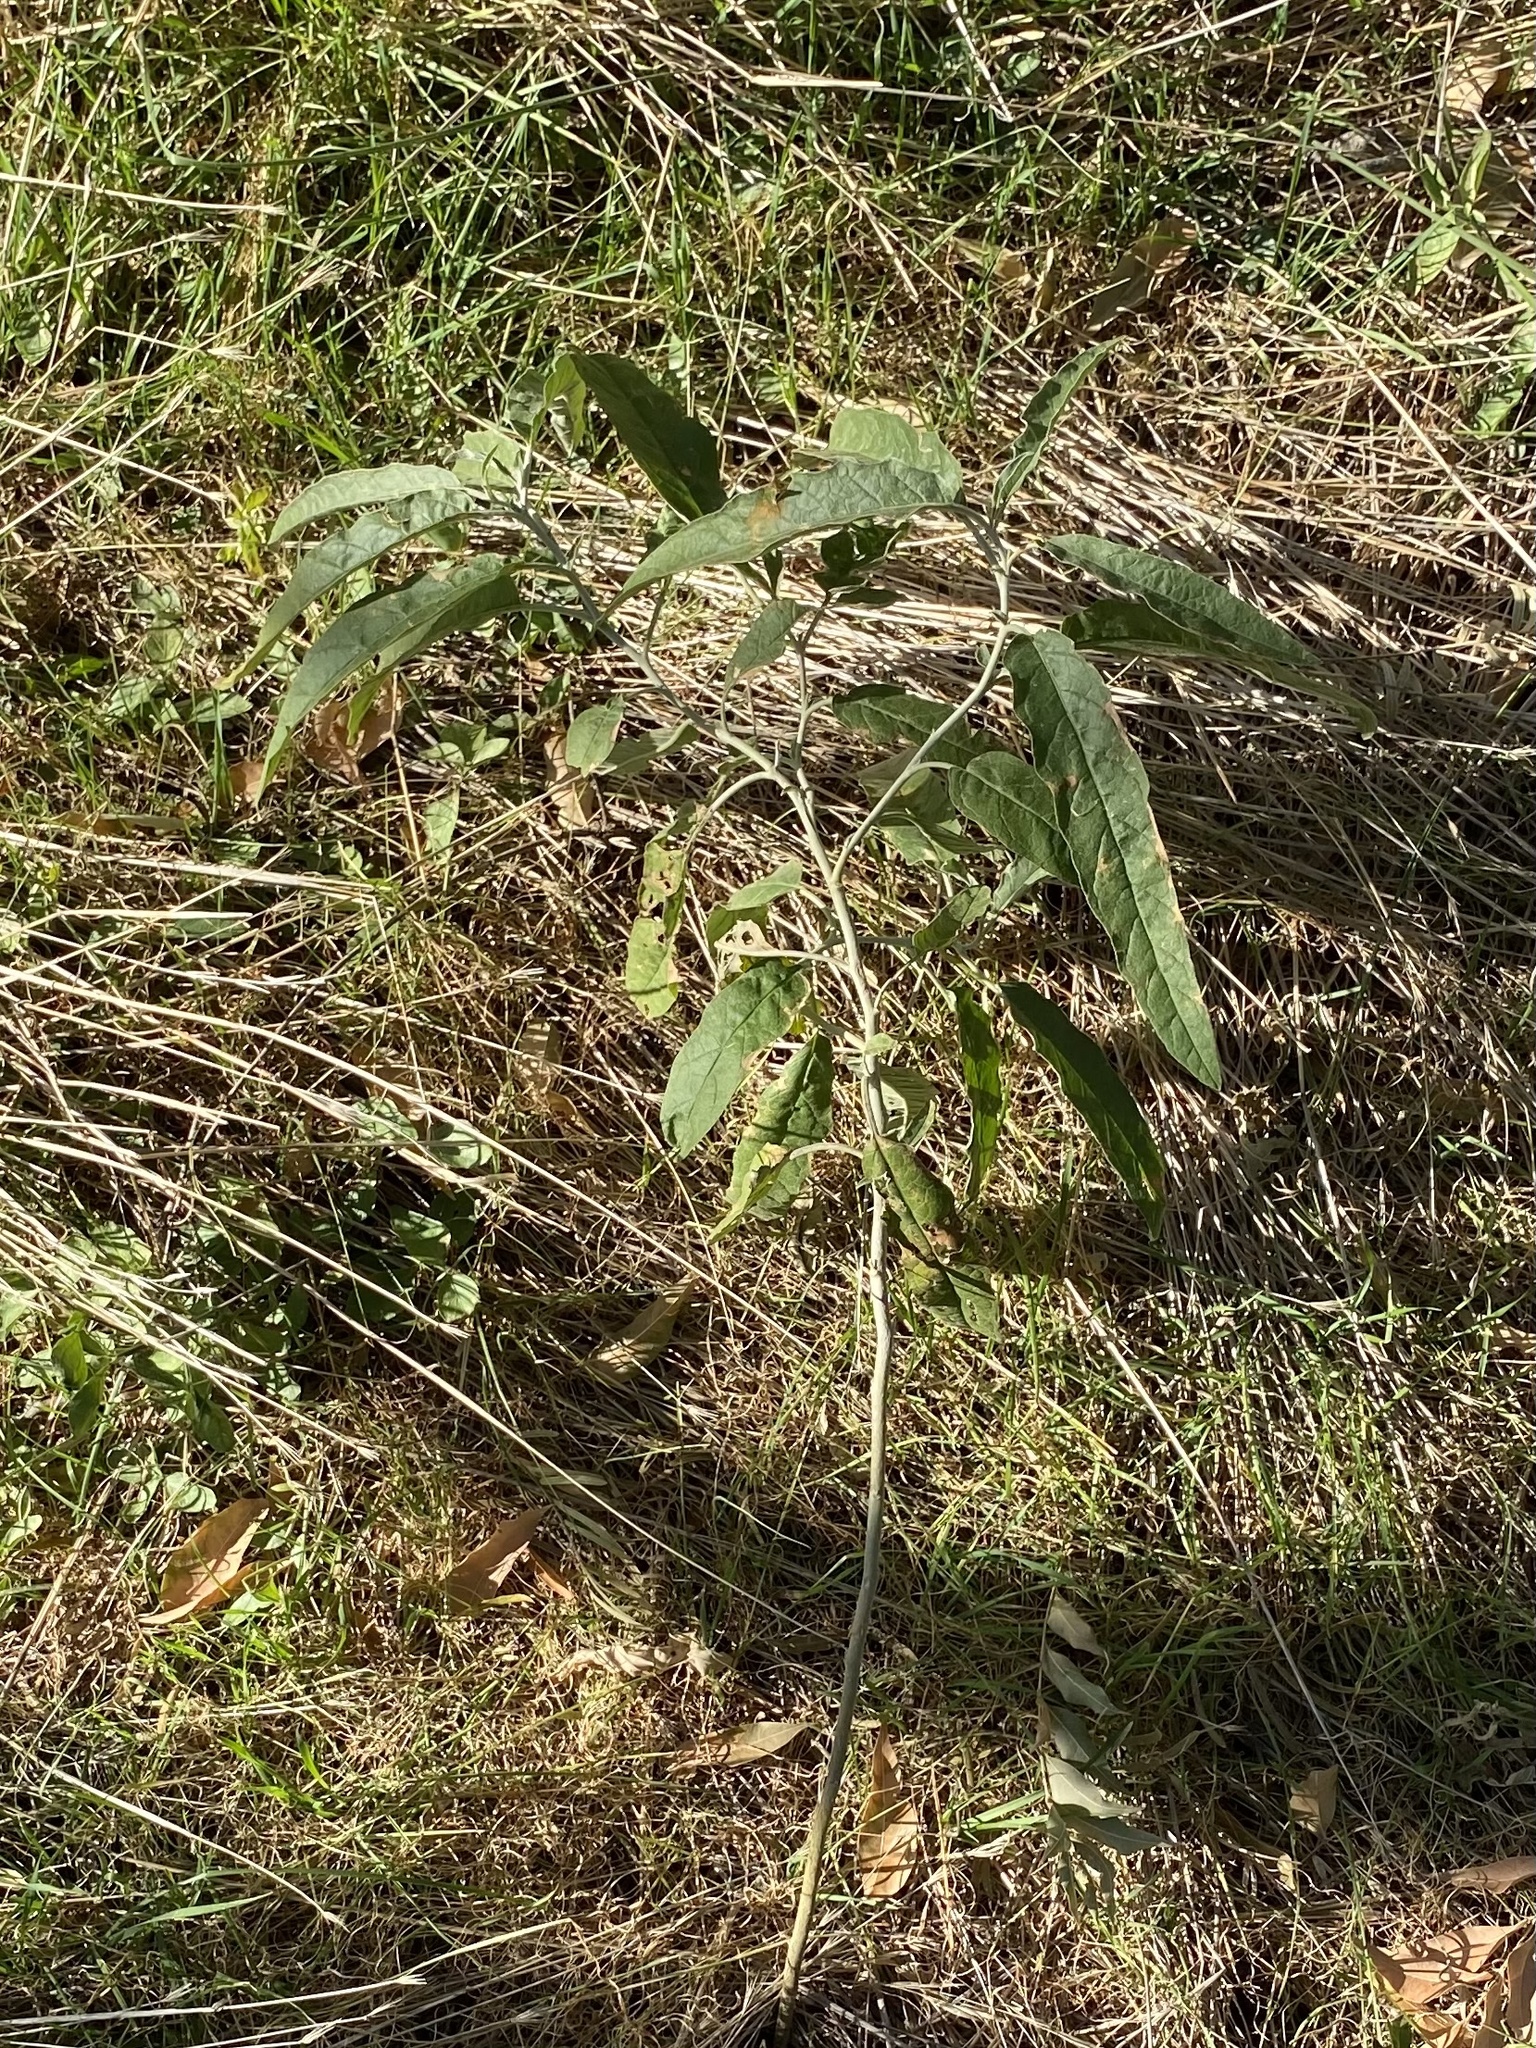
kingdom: Plantae
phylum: Tracheophyta
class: Magnoliopsida
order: Solanales
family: Solanaceae
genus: Solanum
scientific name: Solanum elaeagnifolium
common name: Silverleaf nightshade
